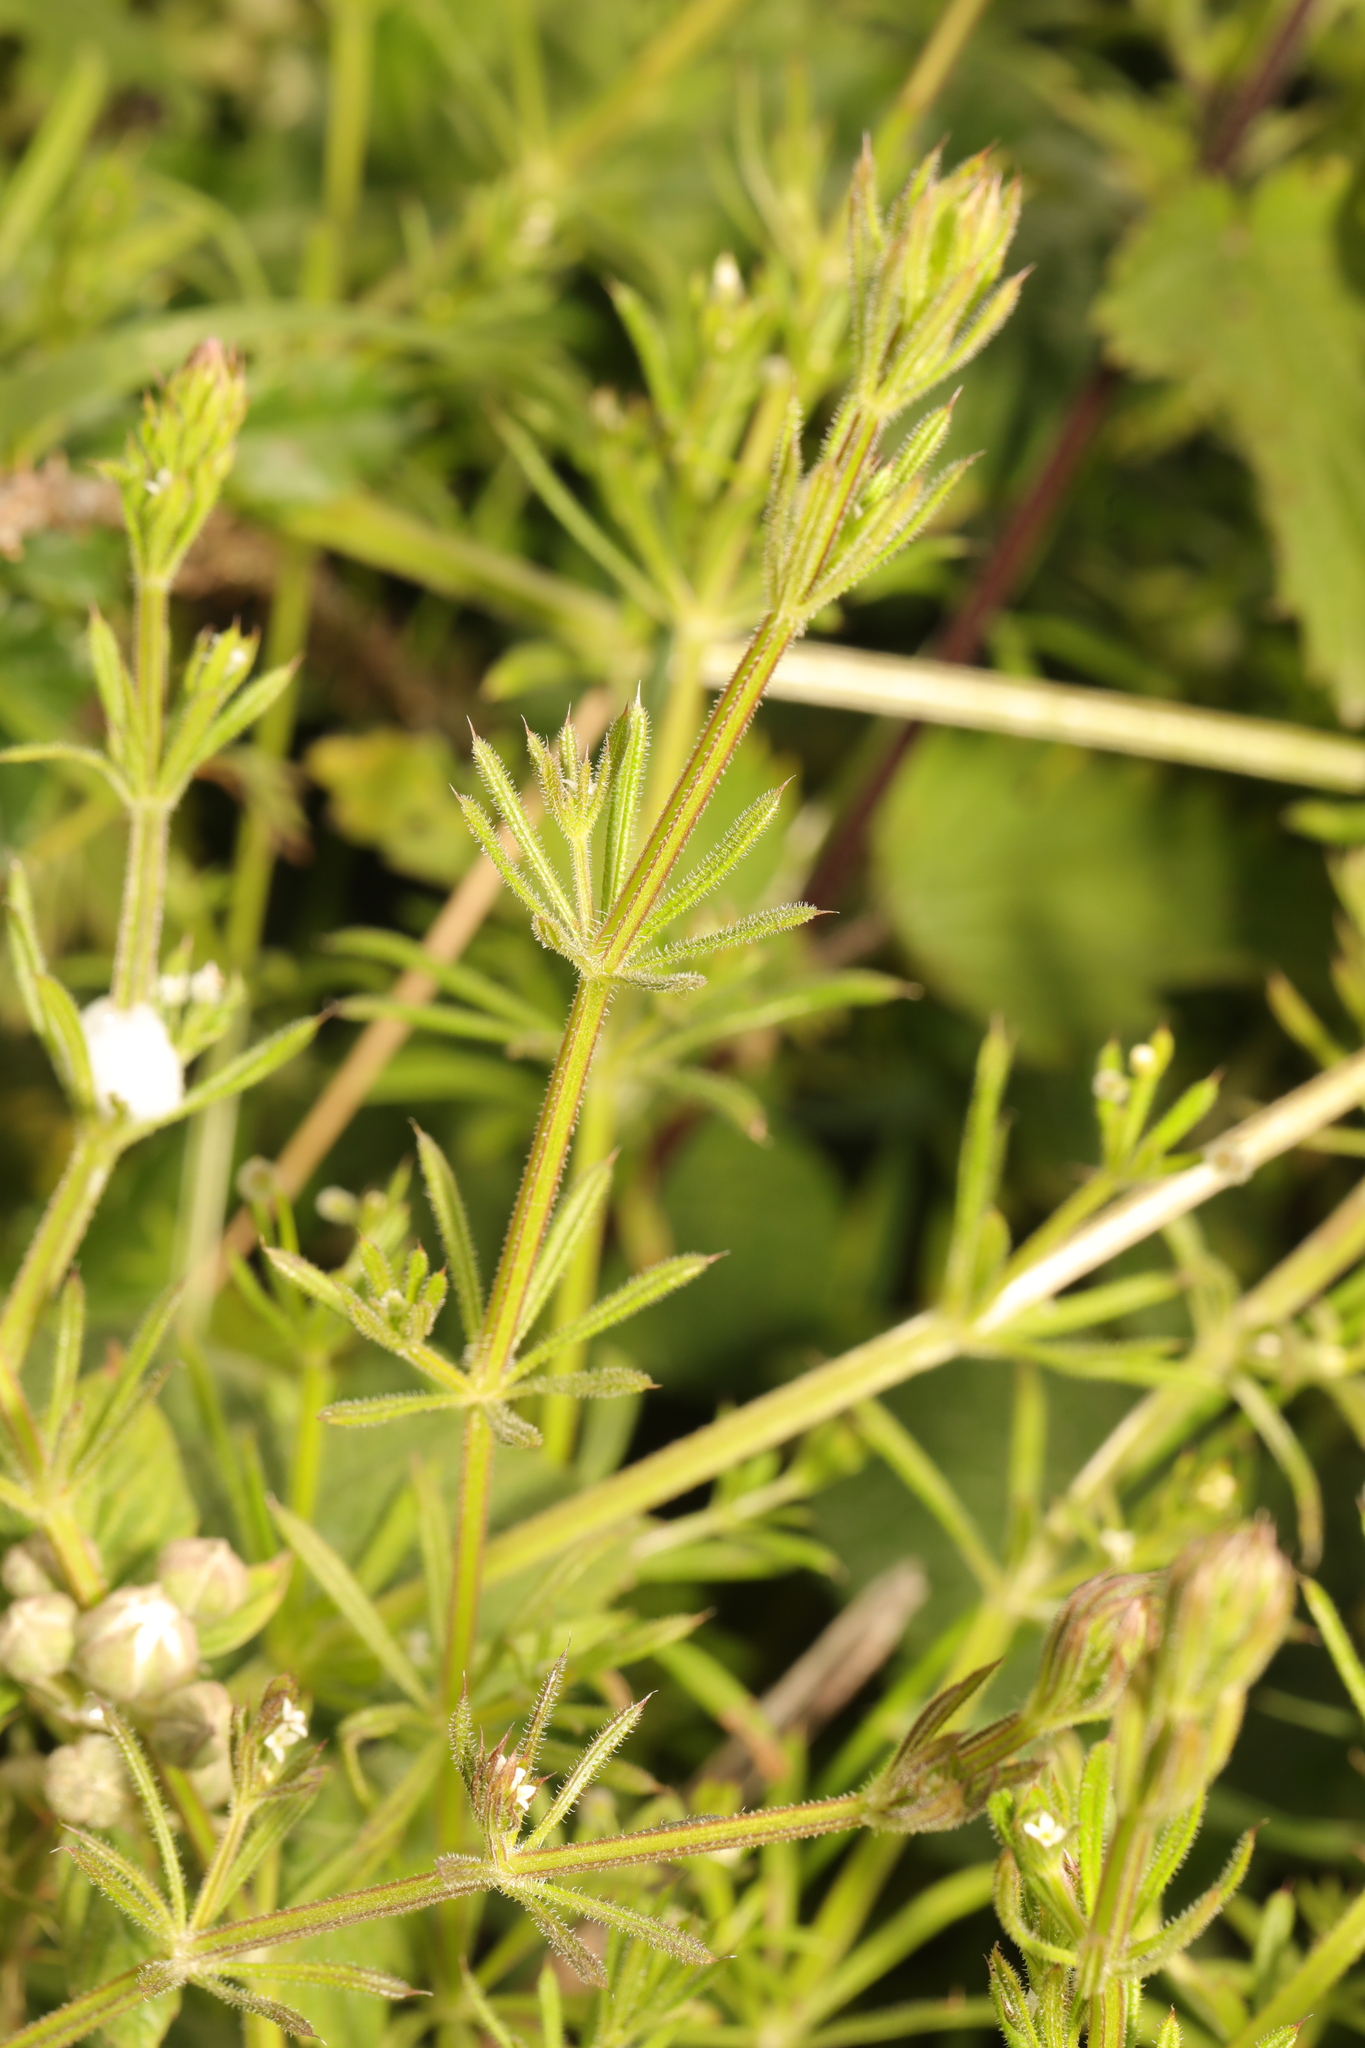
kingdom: Plantae
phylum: Tracheophyta
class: Magnoliopsida
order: Gentianales
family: Rubiaceae
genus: Galium
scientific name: Galium aparine
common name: Cleavers
